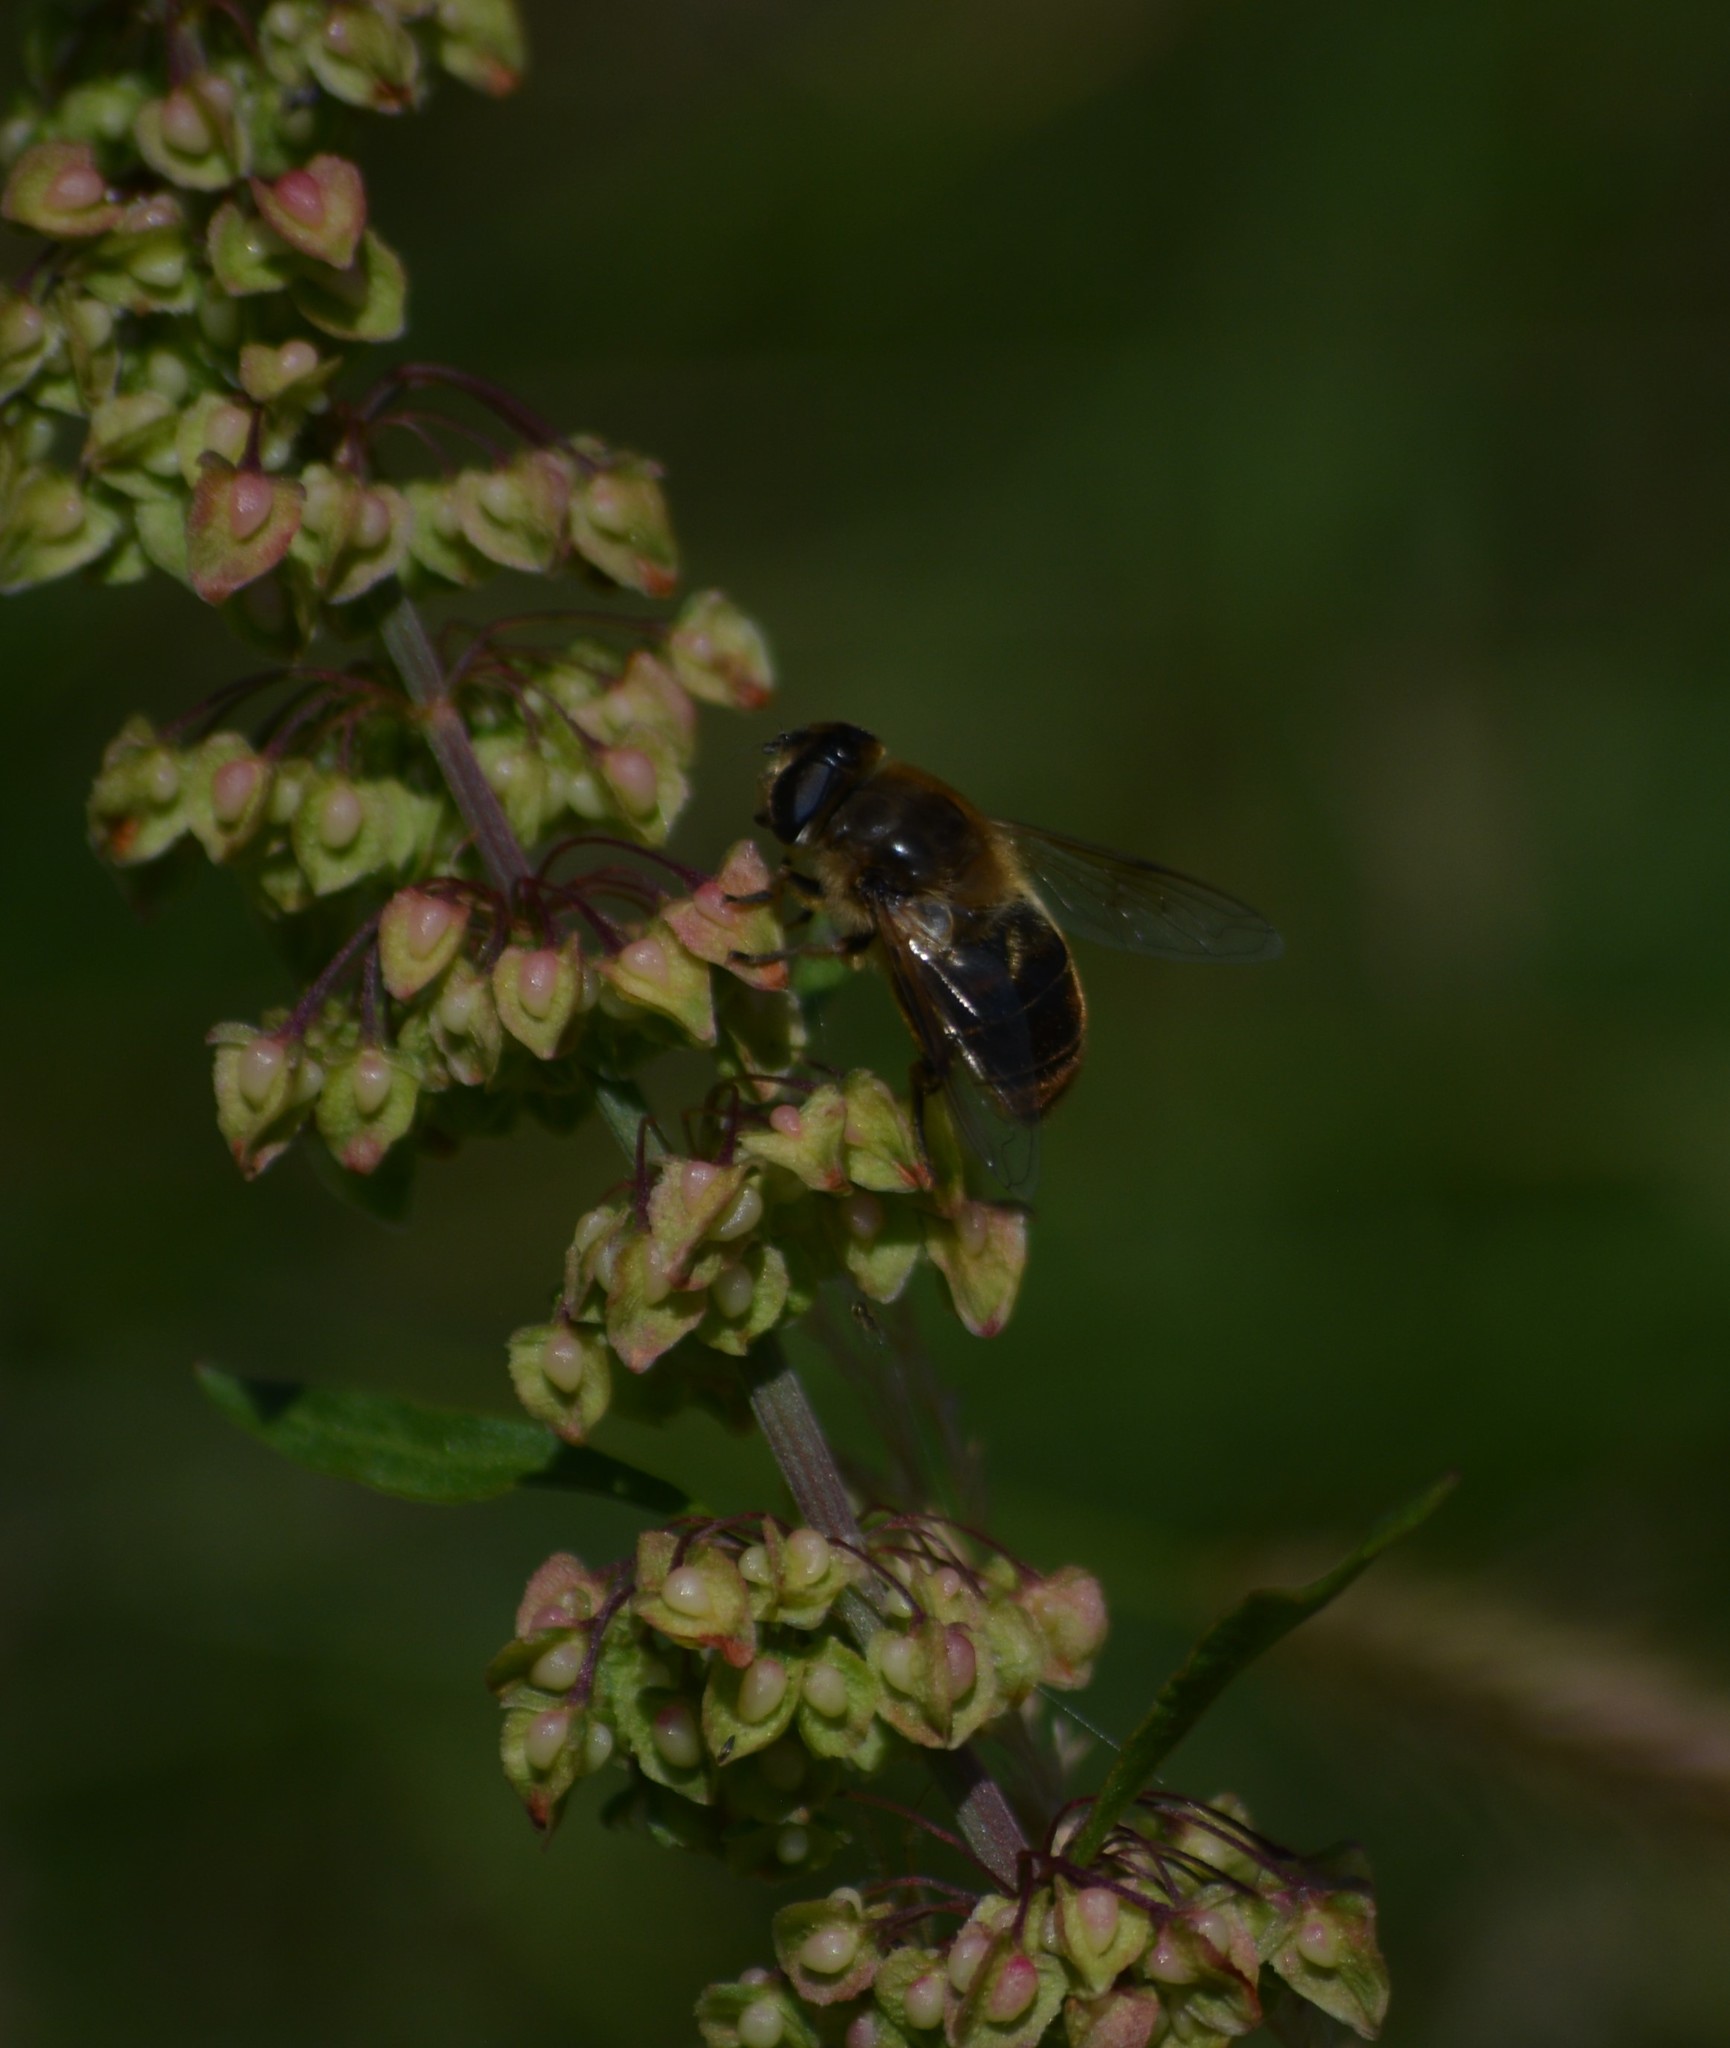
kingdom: Animalia
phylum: Arthropoda
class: Insecta
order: Diptera
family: Syrphidae
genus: Eristalis
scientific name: Eristalis tenax
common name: Drone fly
